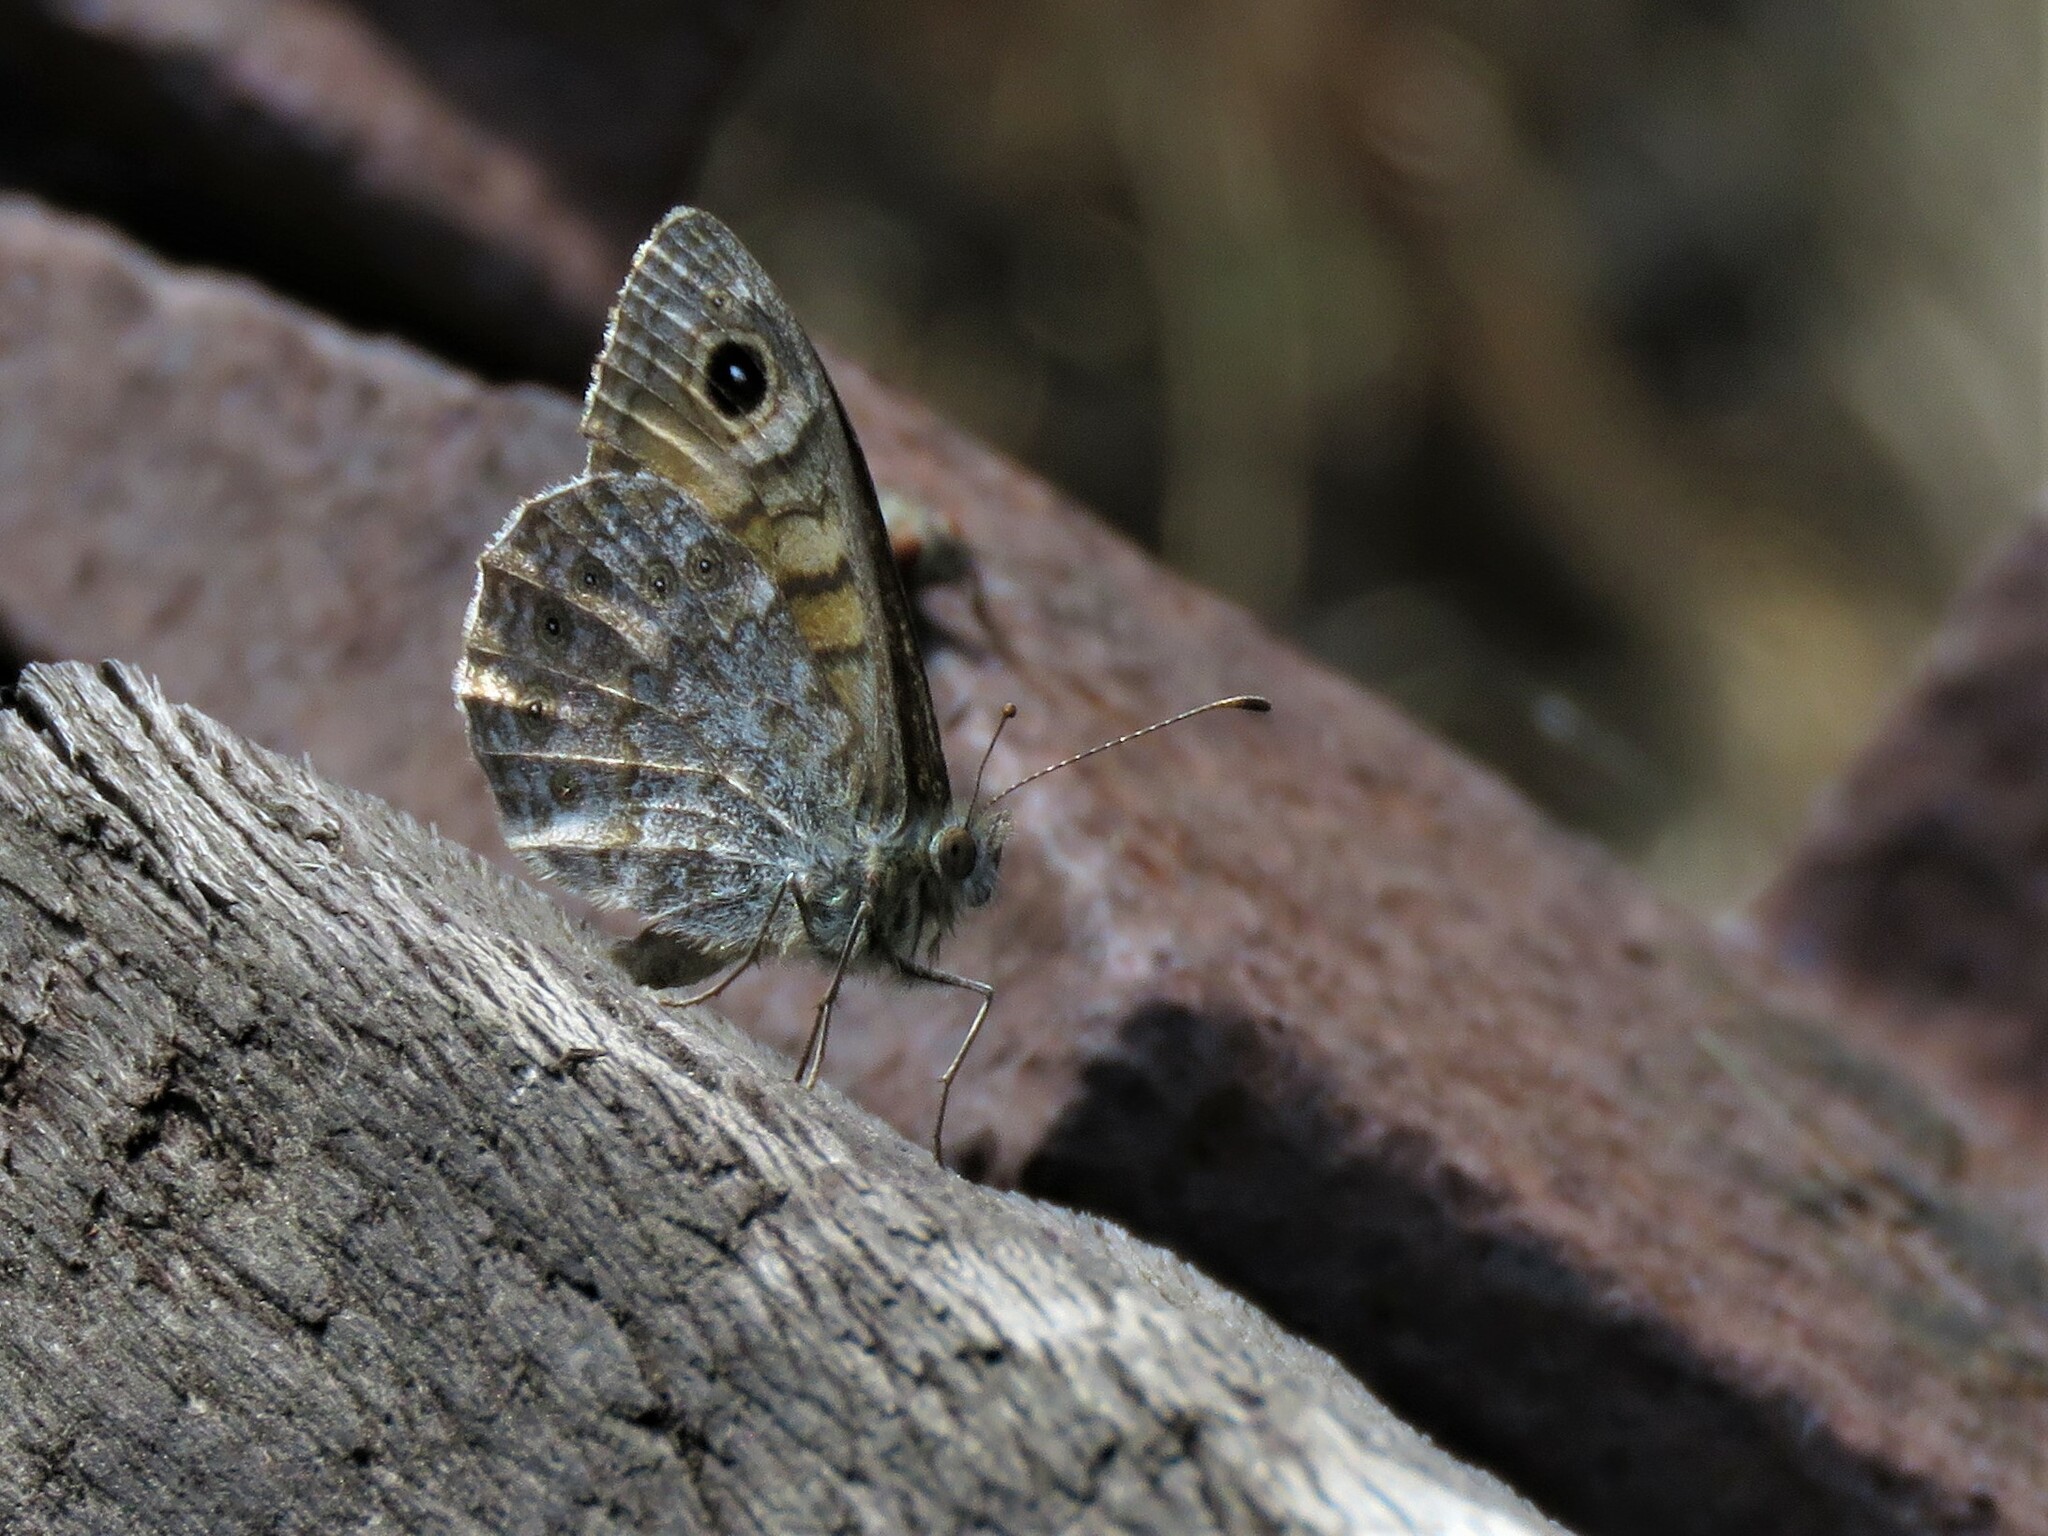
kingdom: Animalia
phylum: Arthropoda
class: Insecta
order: Lepidoptera
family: Nymphalidae
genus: Pararge
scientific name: Pararge Lasiommata megera
